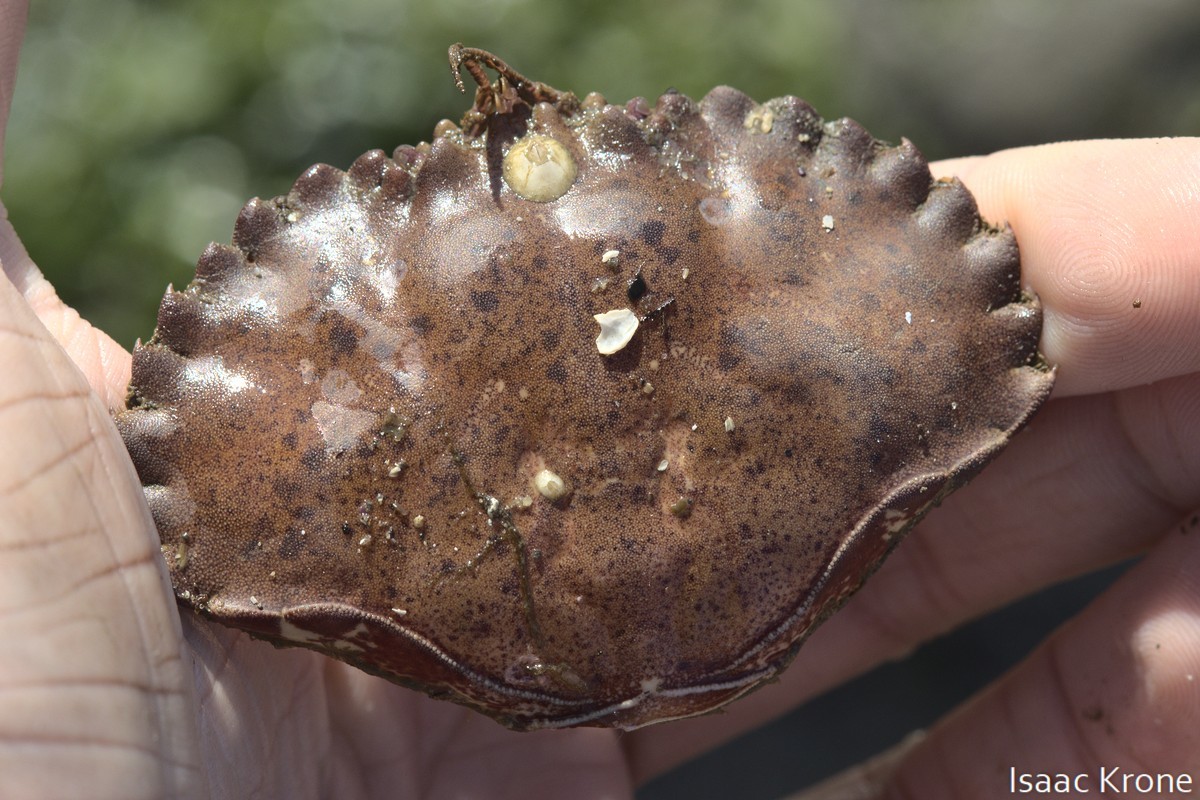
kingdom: Animalia
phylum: Arthropoda
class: Malacostraca
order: Decapoda
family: Cancridae
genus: Romaleon
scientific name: Romaleon antennarium
